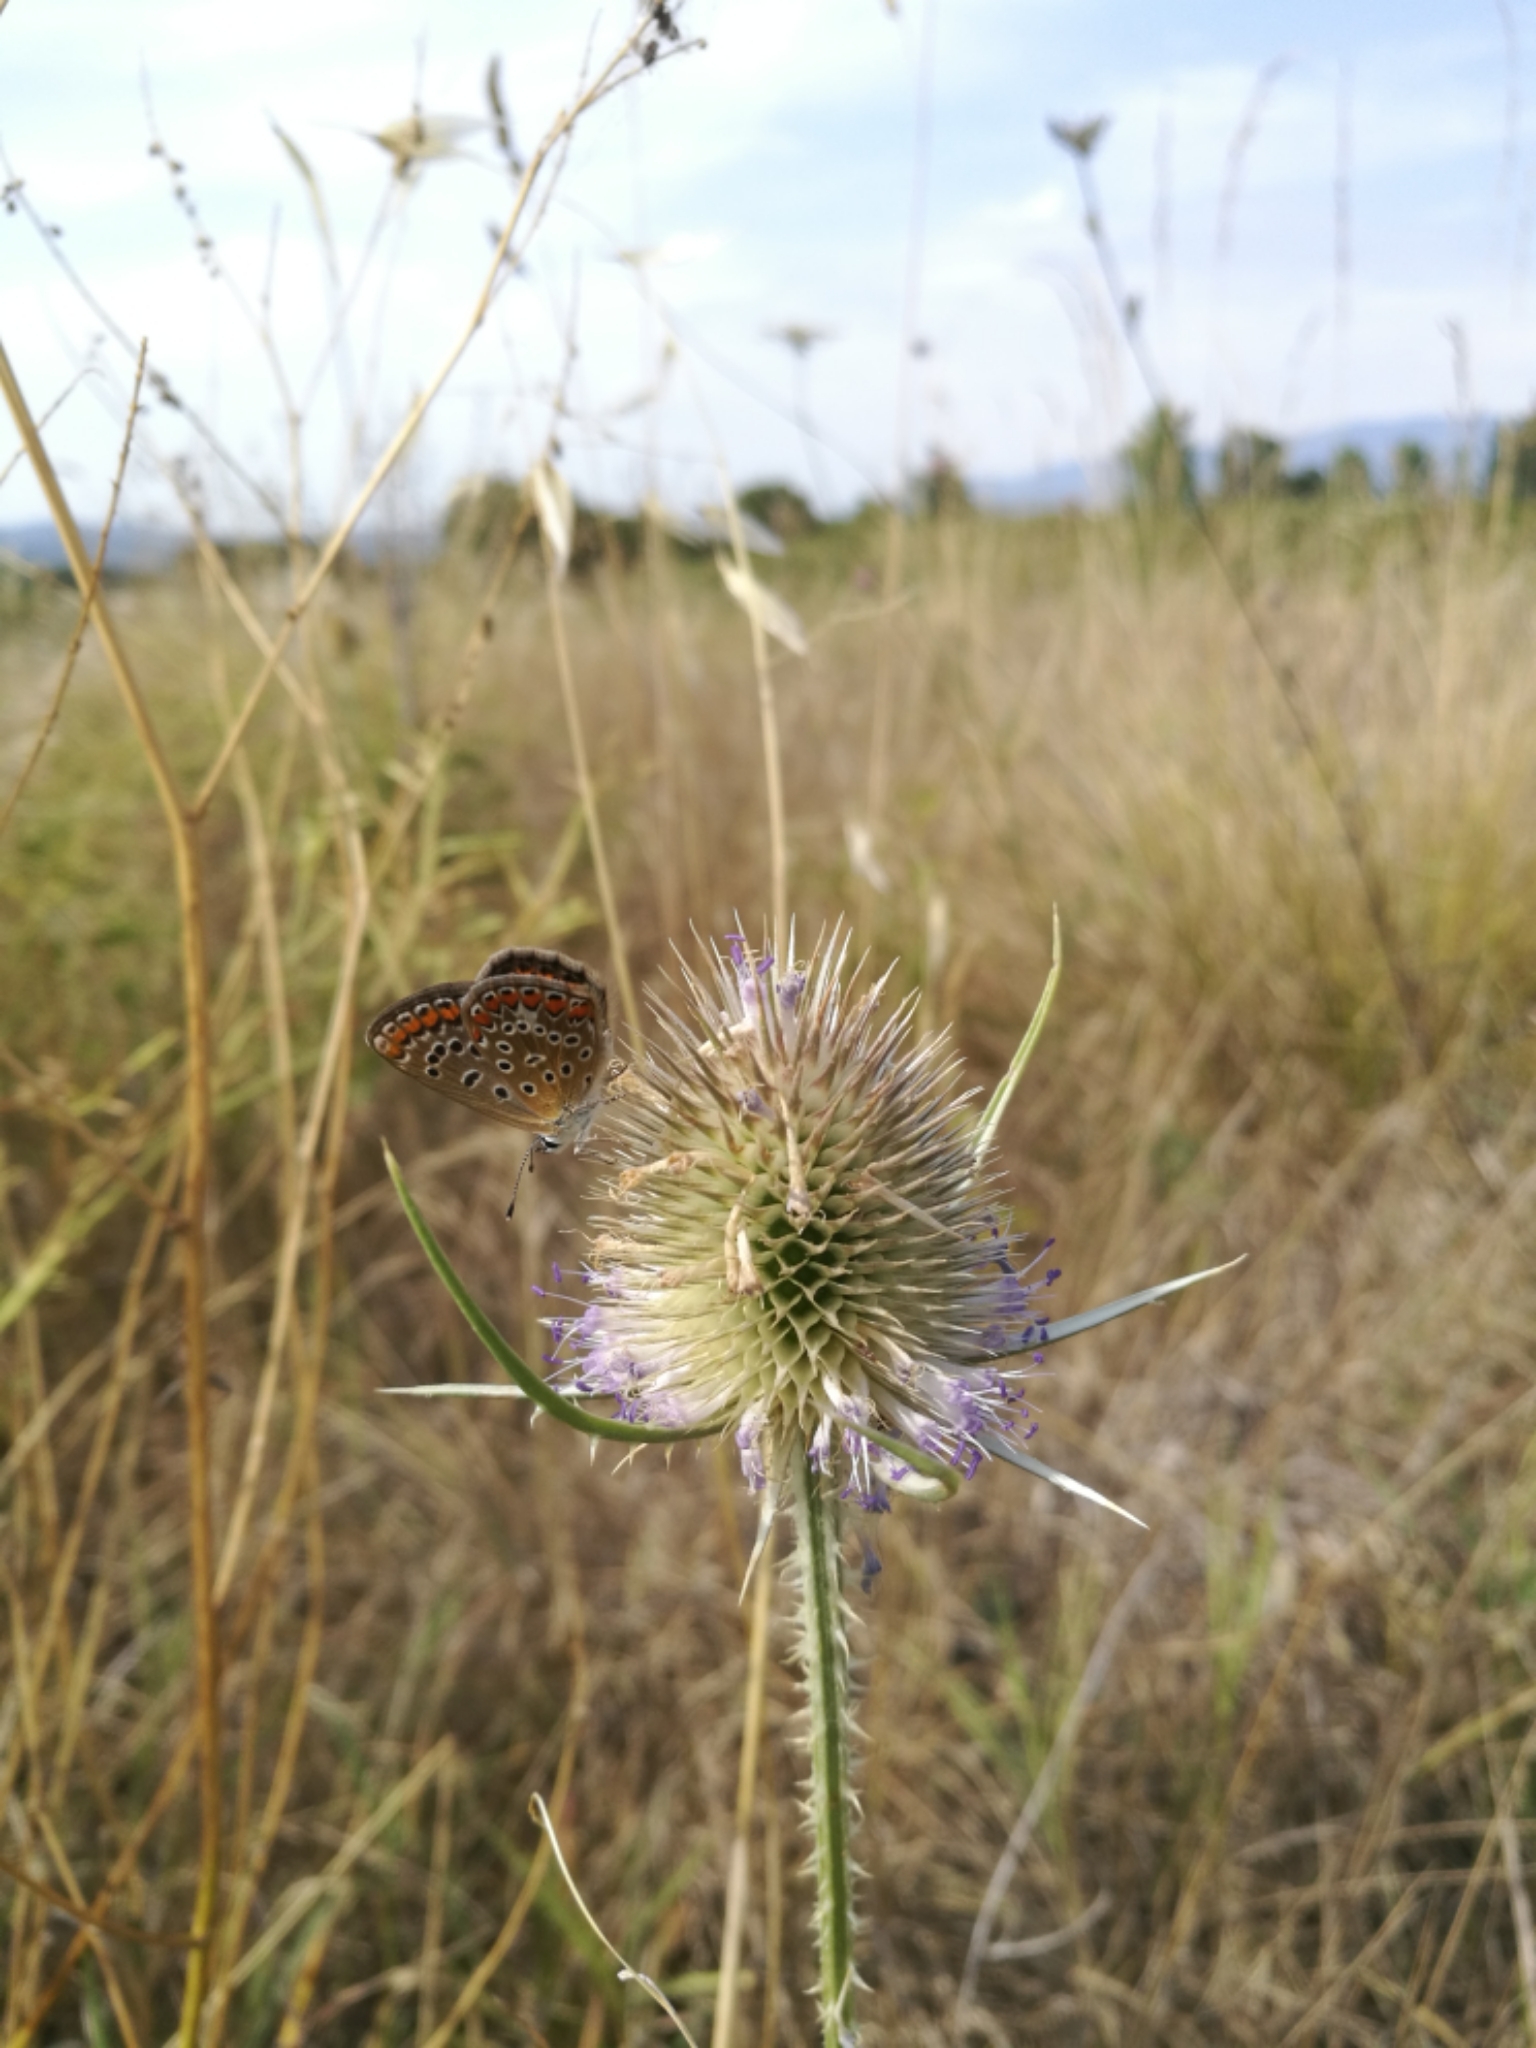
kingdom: Animalia
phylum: Arthropoda
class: Insecta
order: Lepidoptera
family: Lycaenidae
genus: Polyommatus
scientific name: Polyommatus icarus
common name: Common blue
